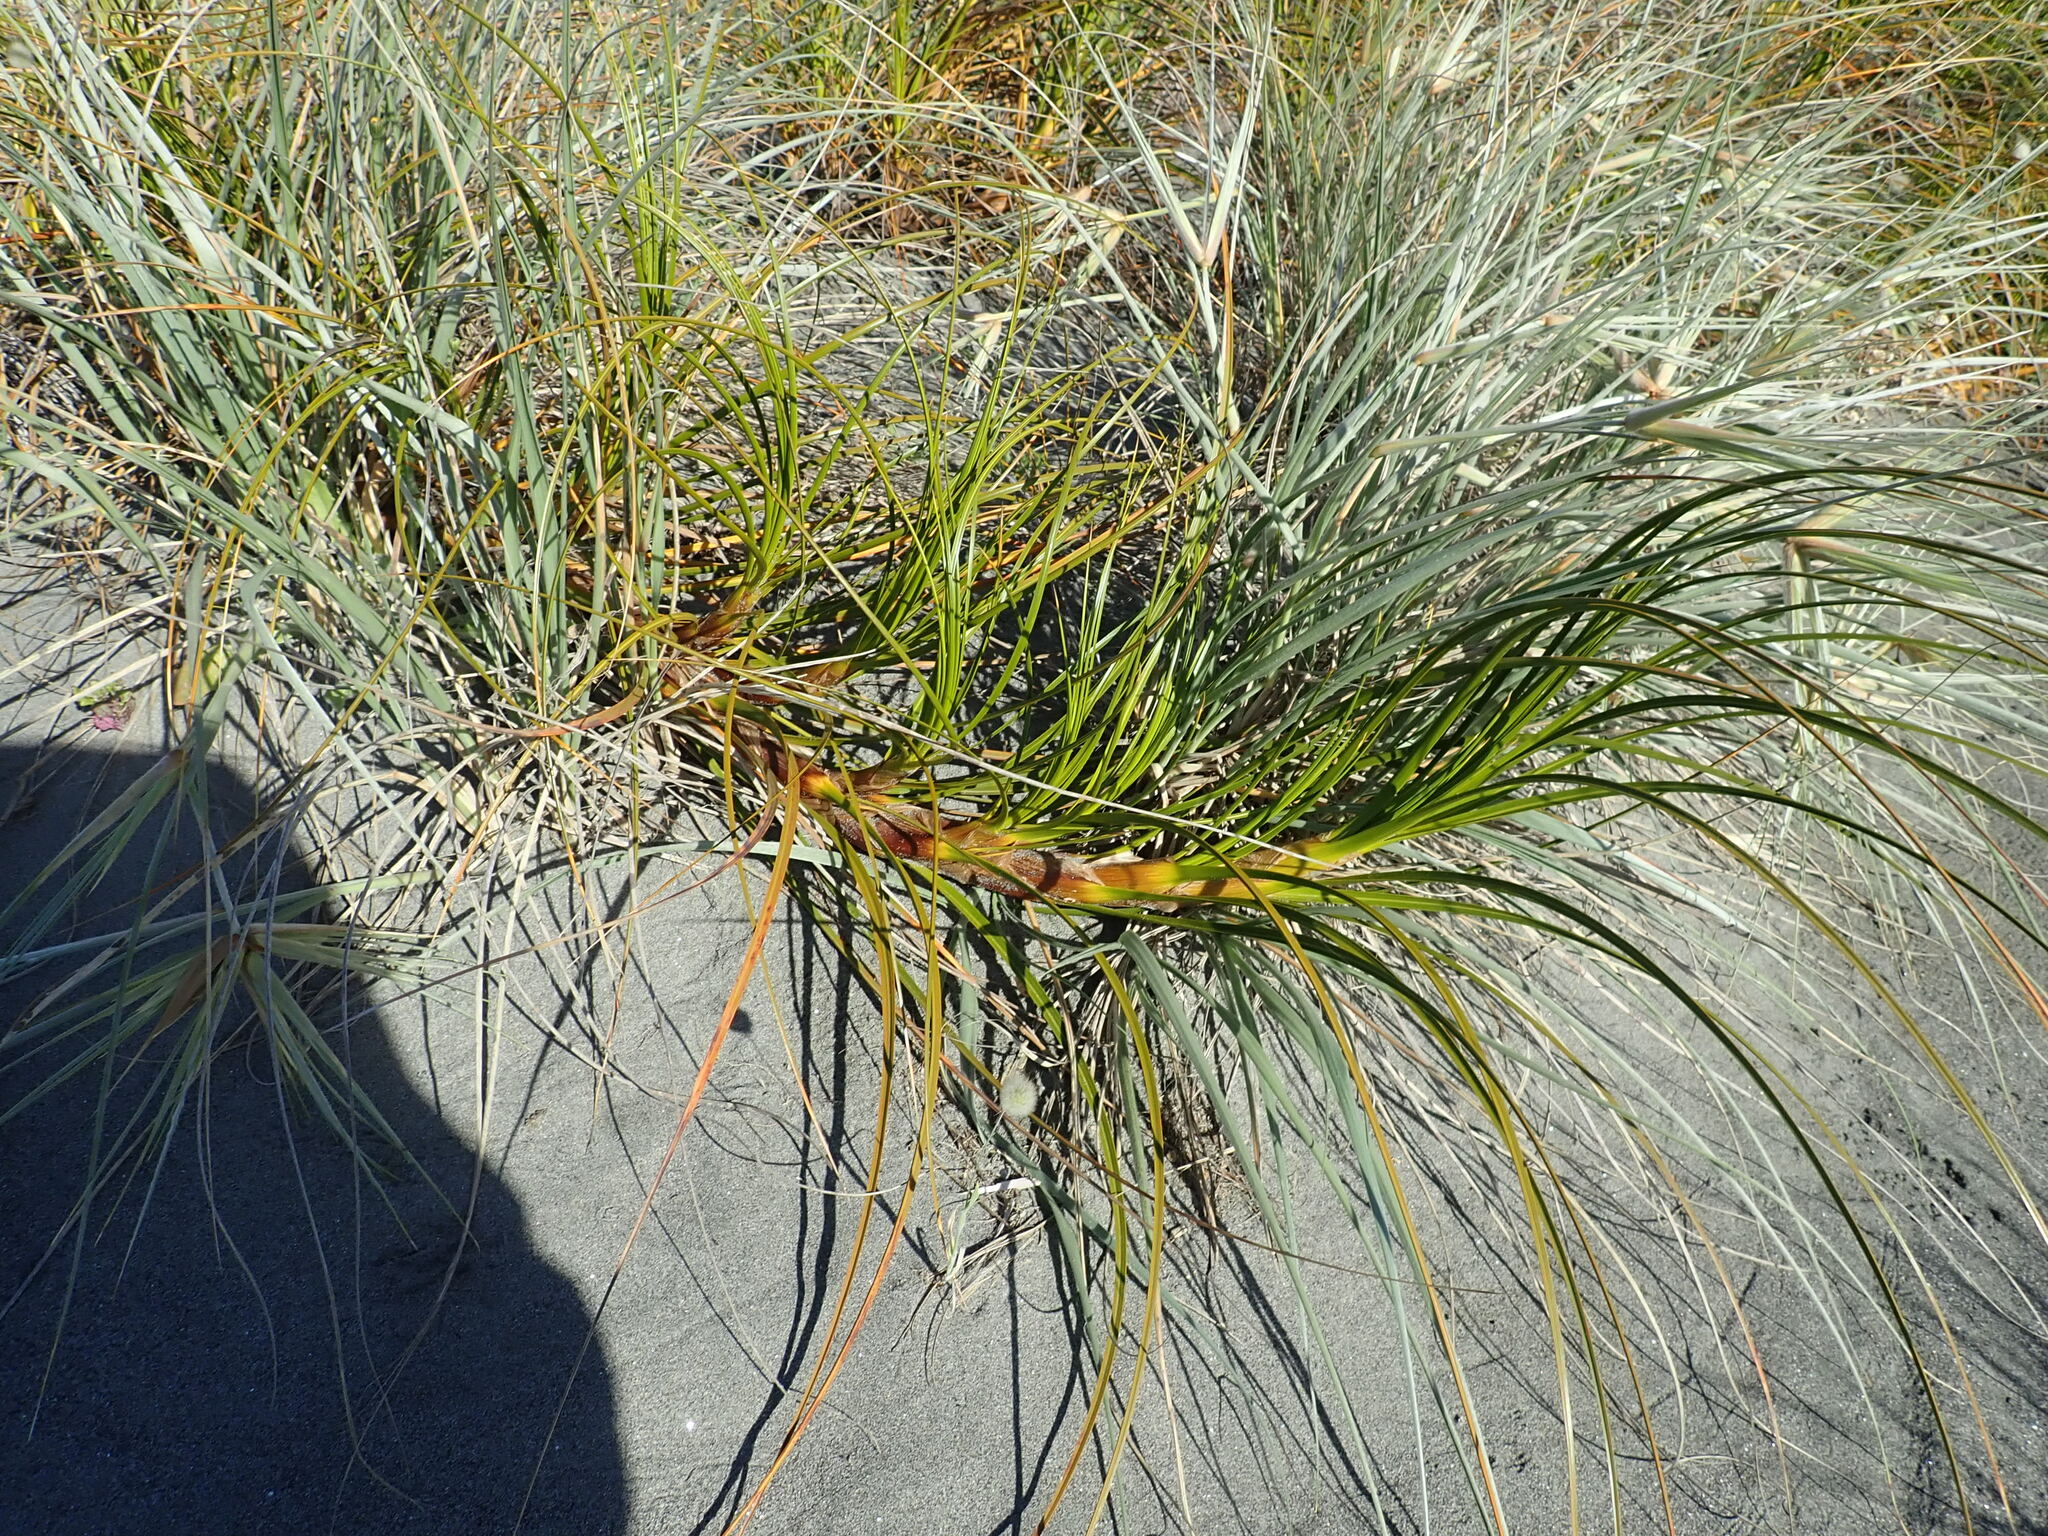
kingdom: Plantae
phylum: Tracheophyta
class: Liliopsida
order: Poales
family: Cyperaceae
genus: Ficinia
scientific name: Ficinia spiralis
